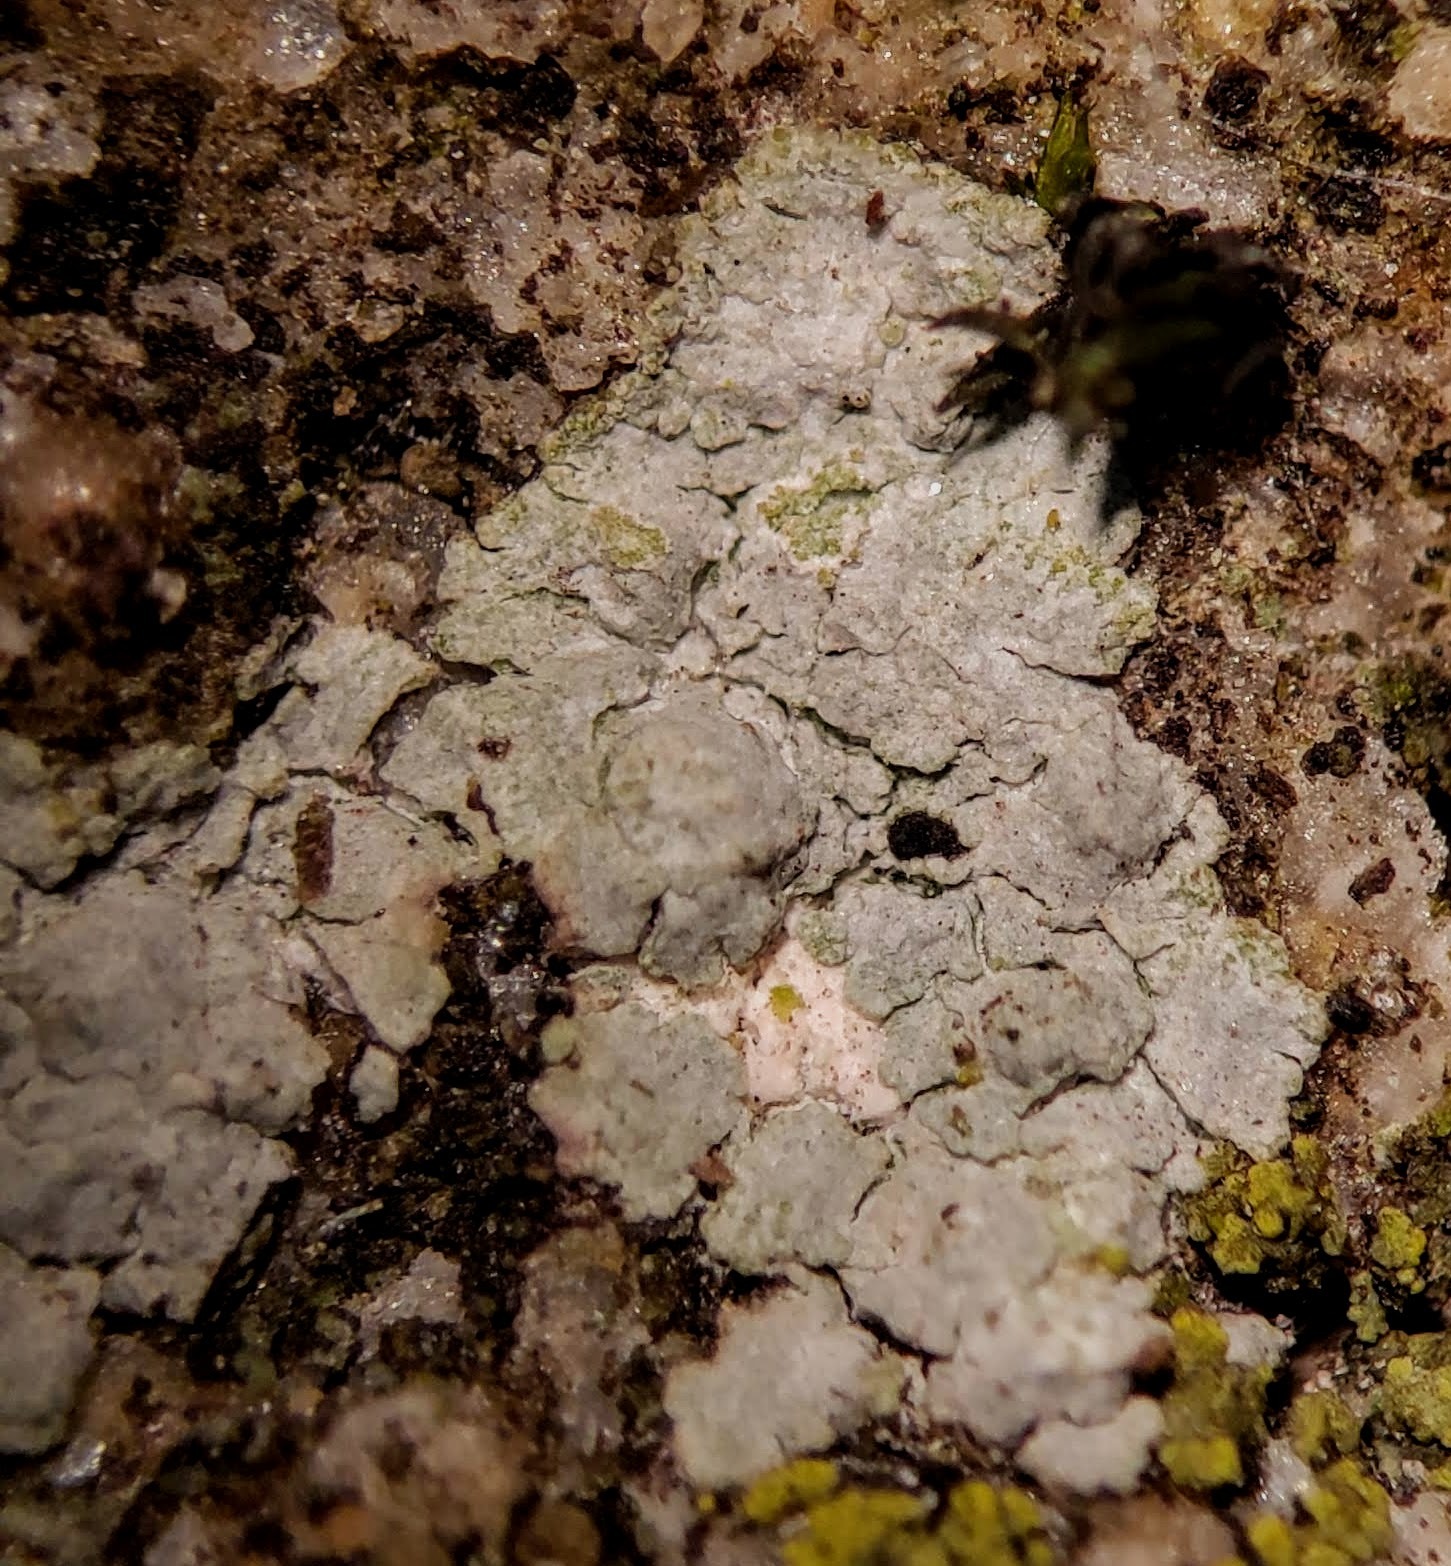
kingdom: Fungi
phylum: Ascomycota
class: Lecanoromycetes
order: Baeomycetales
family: Trapeliaceae
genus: Kleopowiella
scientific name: Kleopowiella placodioides
